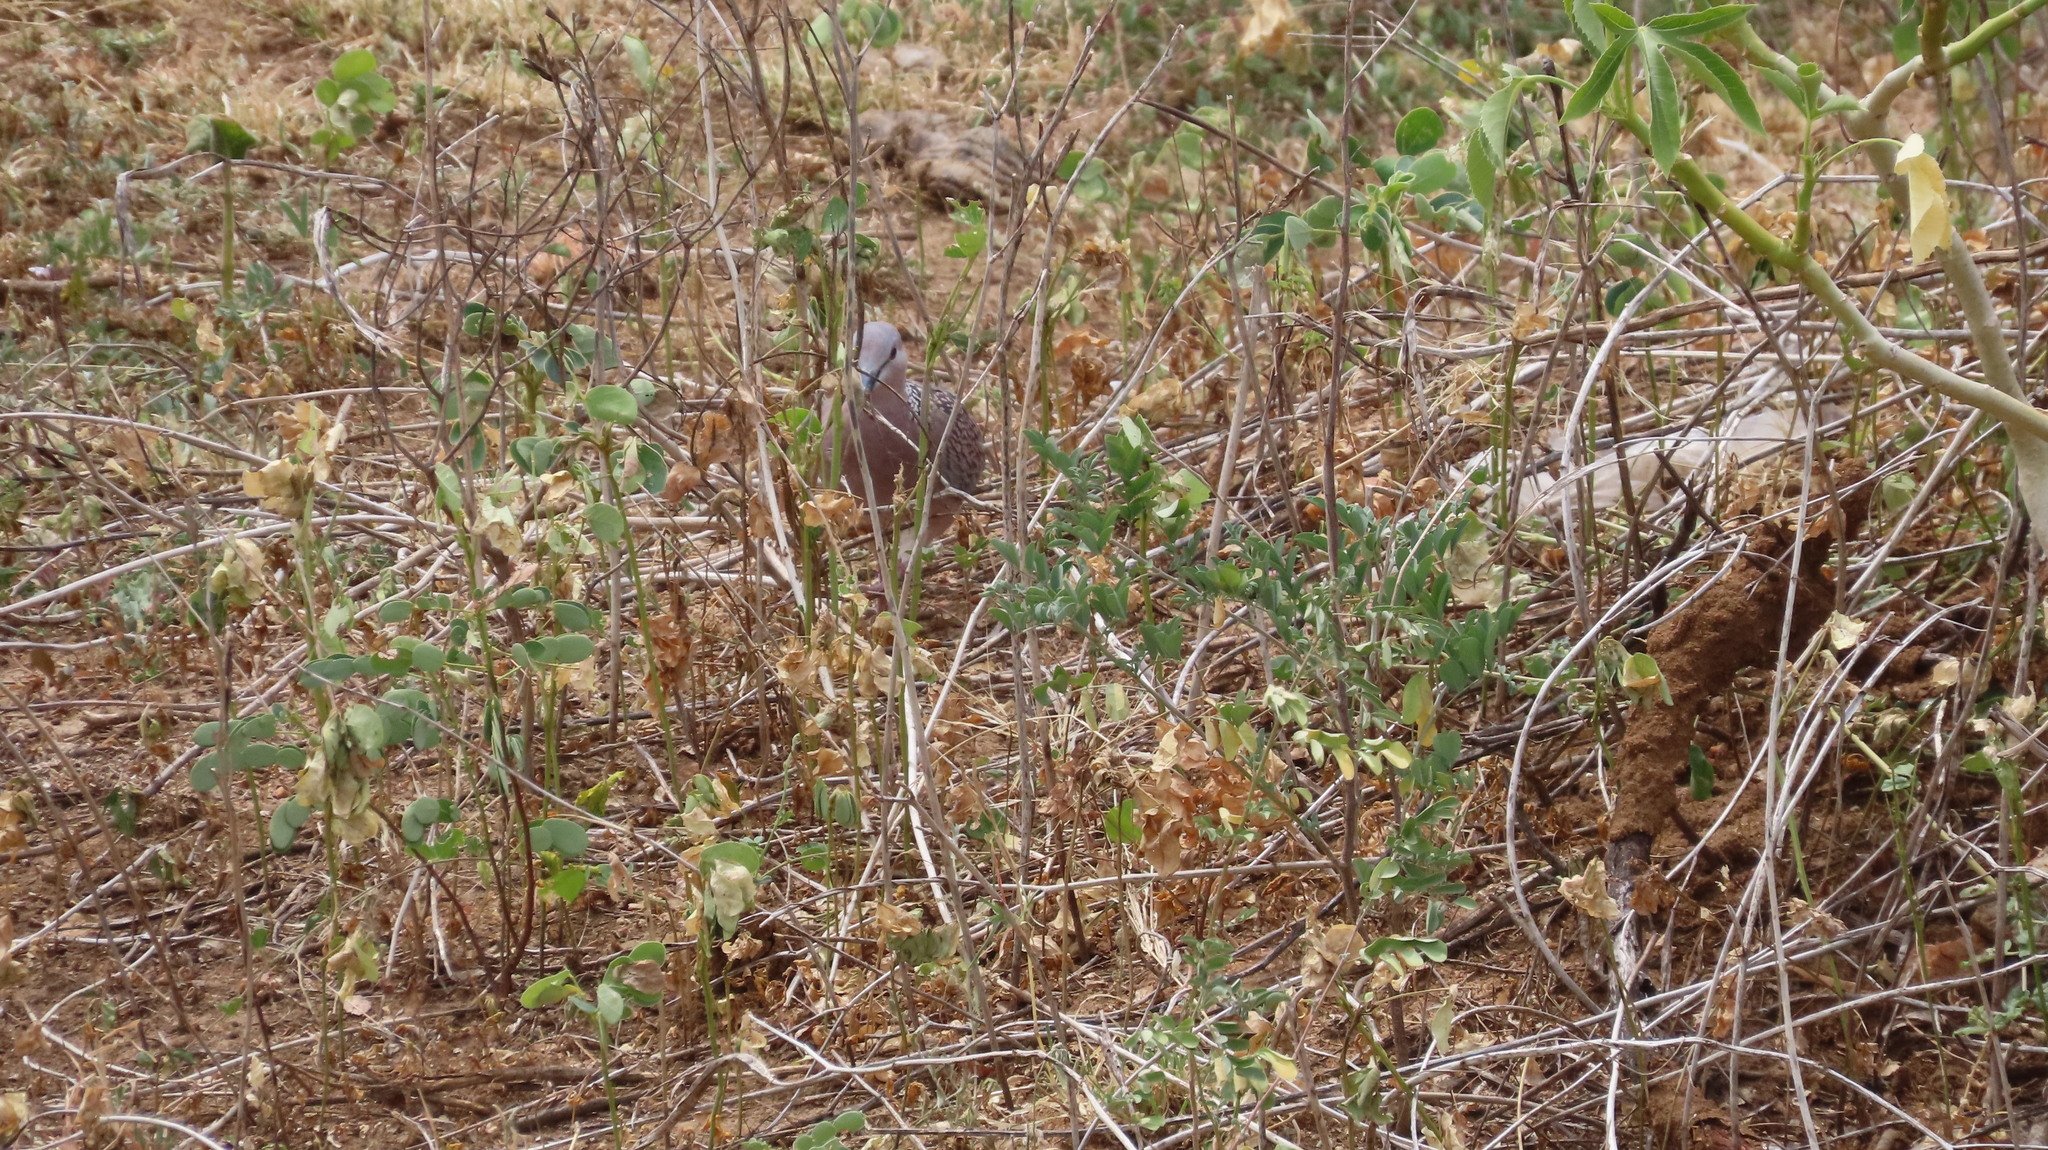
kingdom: Animalia
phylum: Chordata
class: Aves
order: Columbiformes
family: Columbidae
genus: Spilopelia
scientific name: Spilopelia chinensis
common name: Spotted dove
